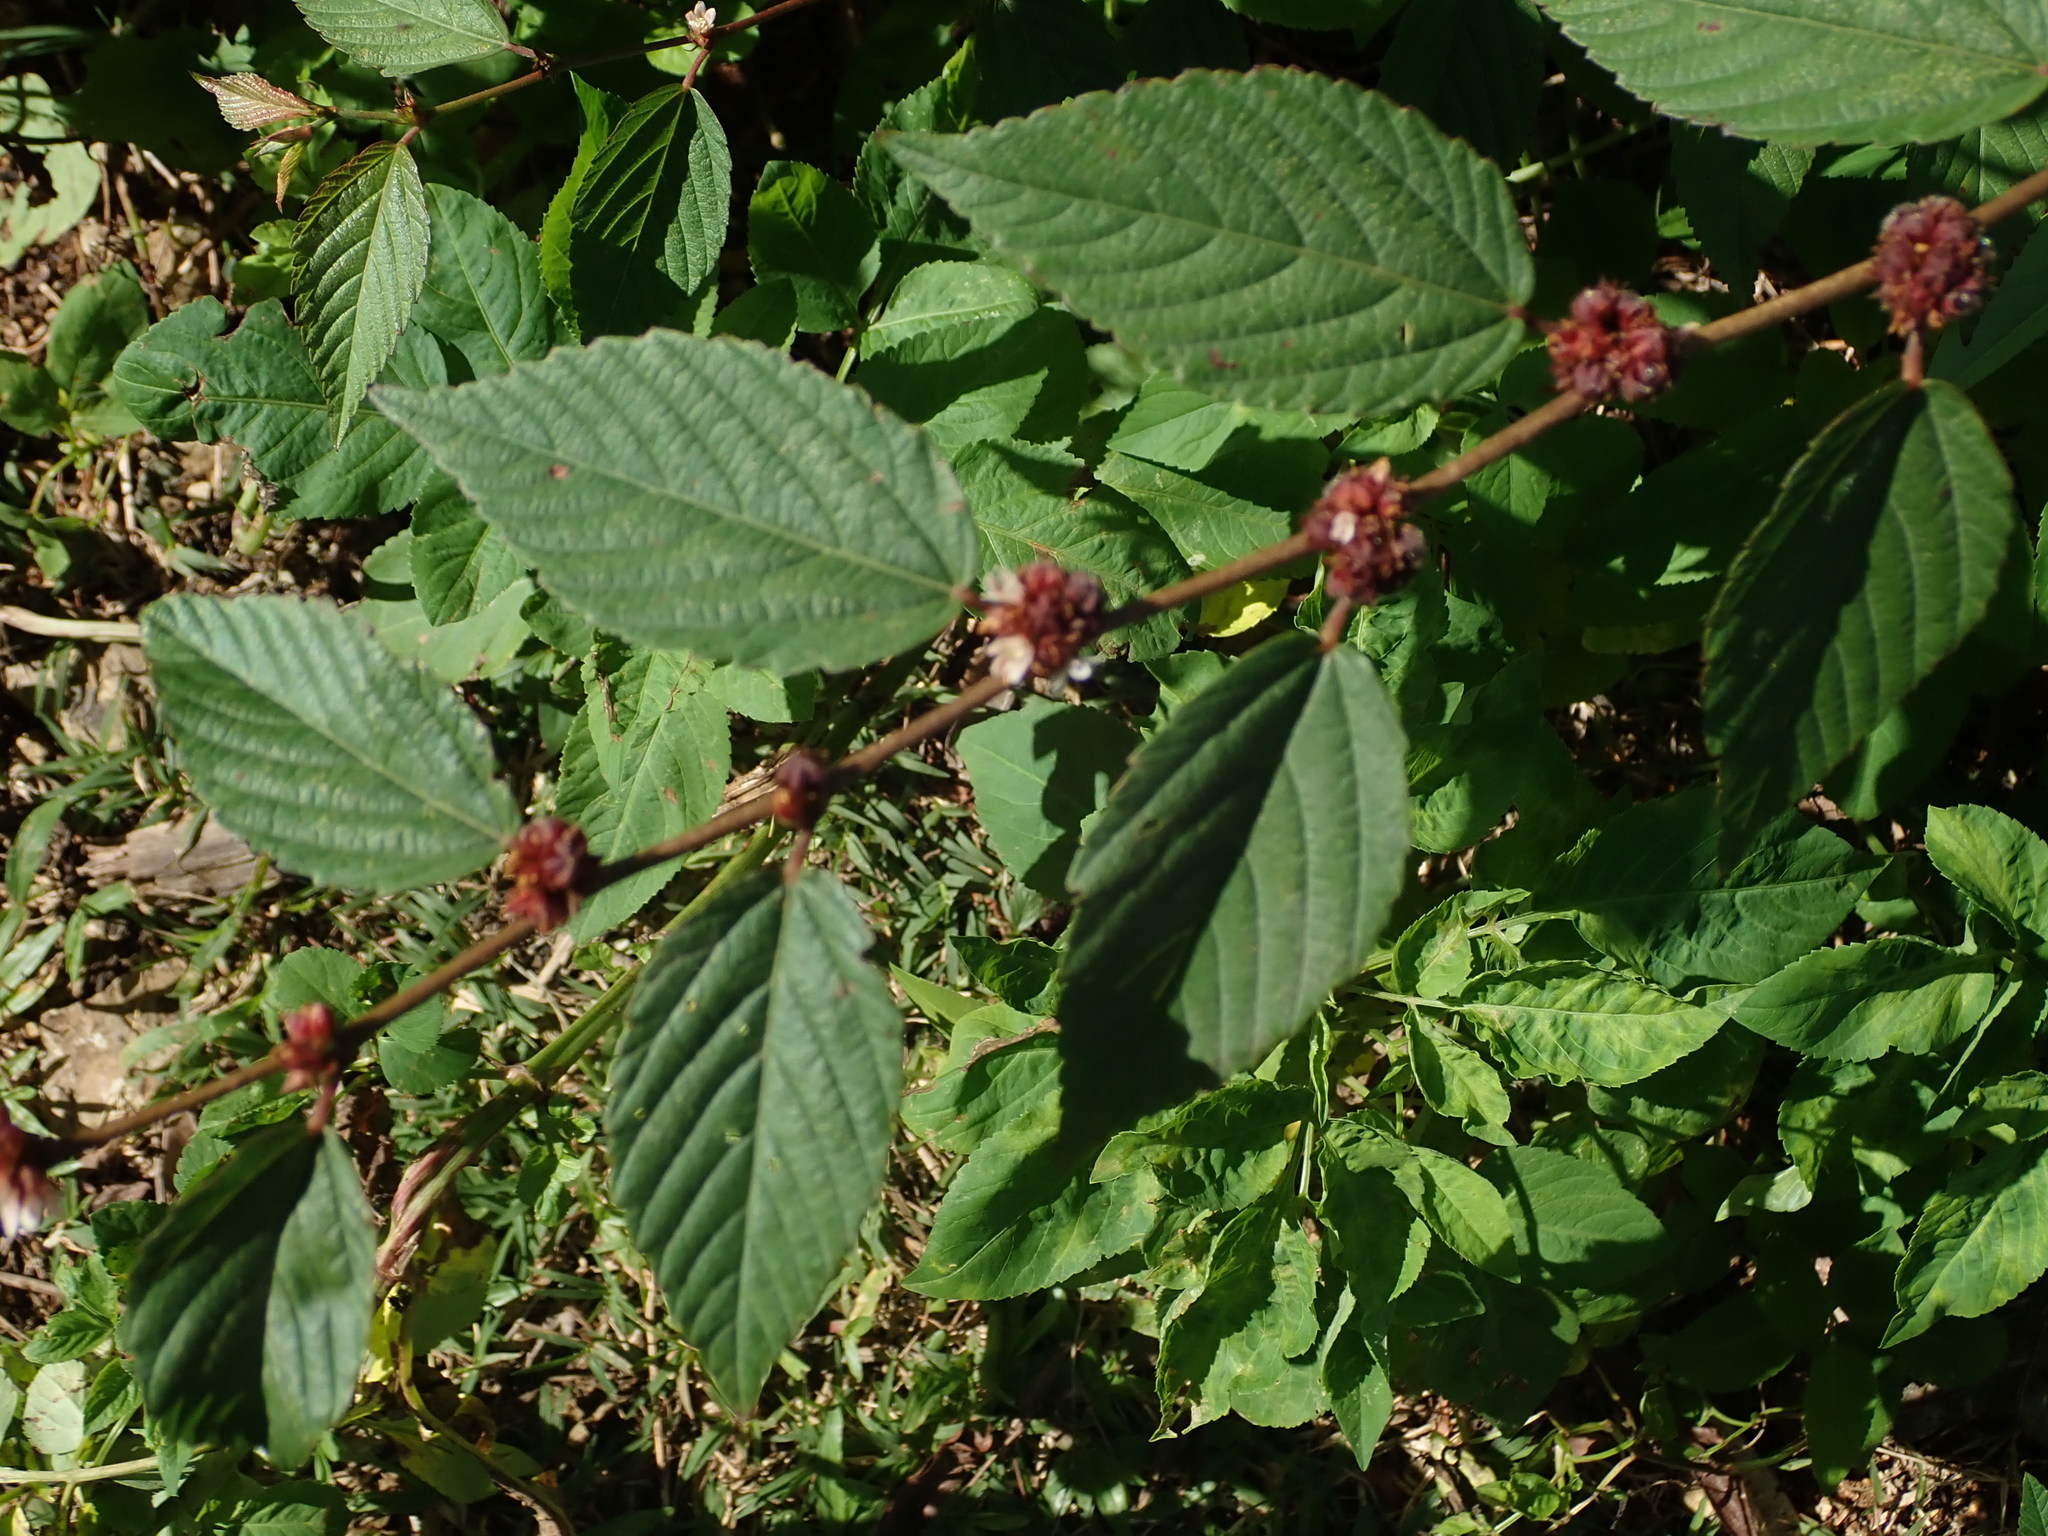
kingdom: Plantae
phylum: Tracheophyta
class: Magnoliopsida
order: Malvales
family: Malvaceae
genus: Melochia
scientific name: Melochia nodiflora
